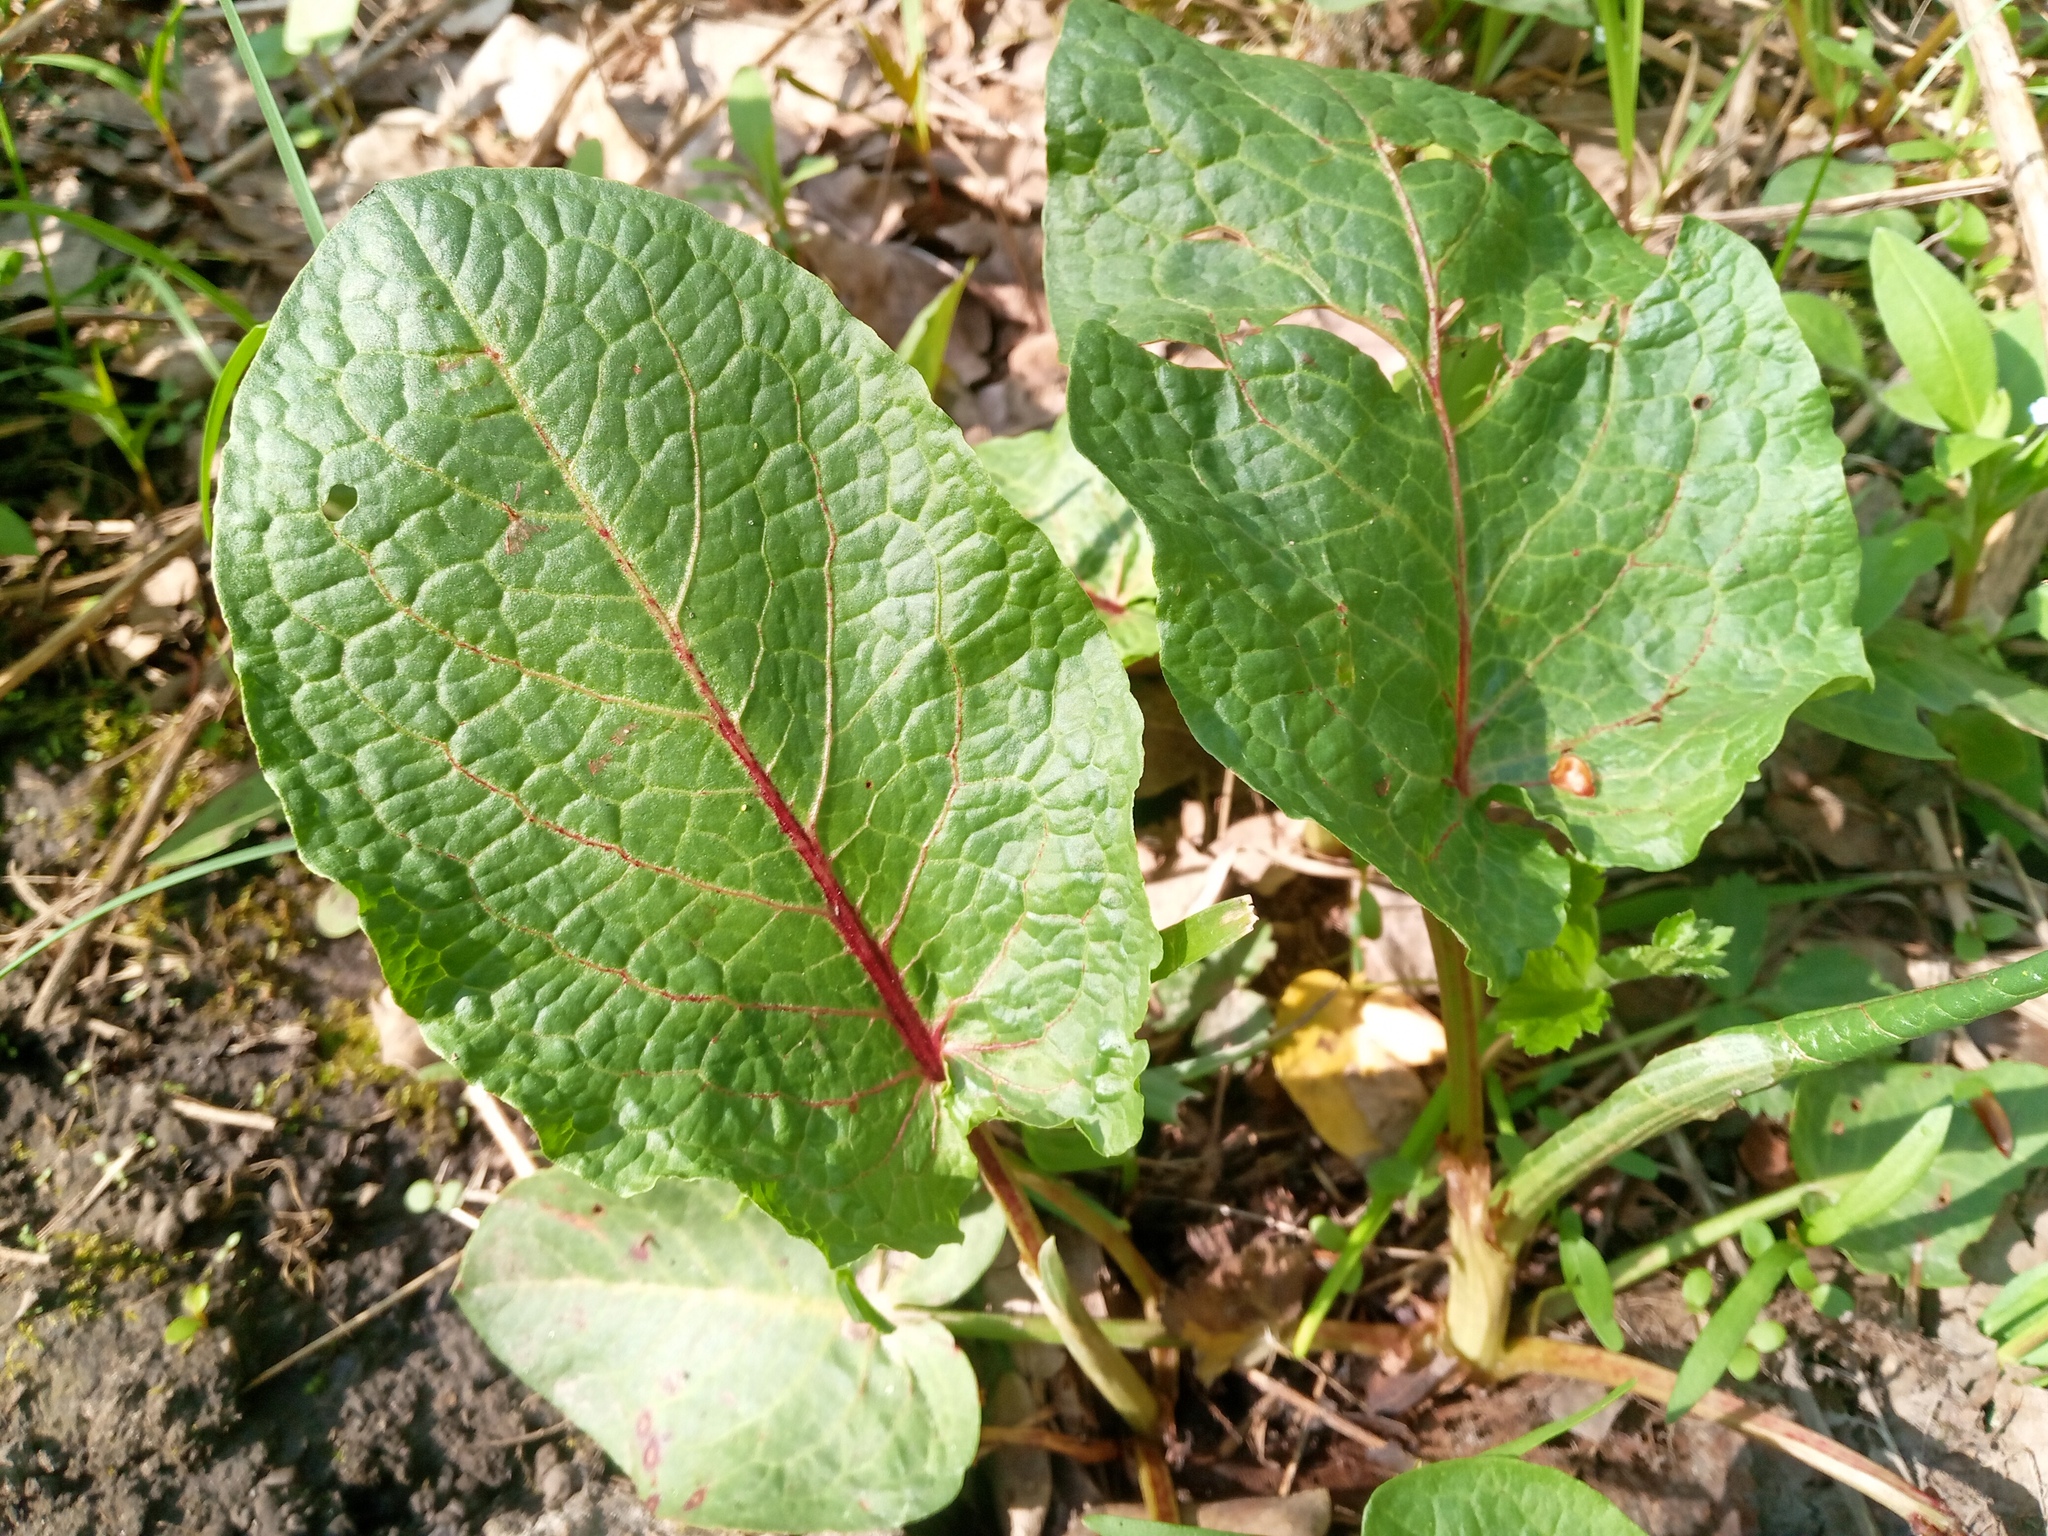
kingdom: Plantae
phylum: Tracheophyta
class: Magnoliopsida
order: Caryophyllales
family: Polygonaceae
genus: Rumex
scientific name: Rumex obtusifolius
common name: Bitter dock
